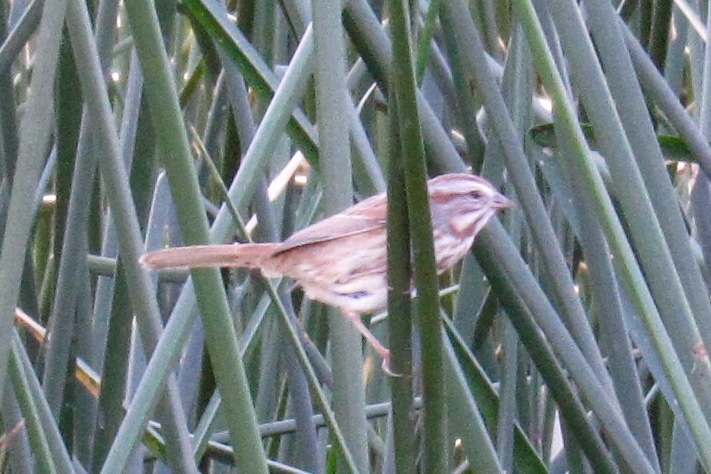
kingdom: Animalia
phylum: Chordata
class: Aves
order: Passeriformes
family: Passerellidae
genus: Melospiza
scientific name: Melospiza melodia
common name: Song sparrow
